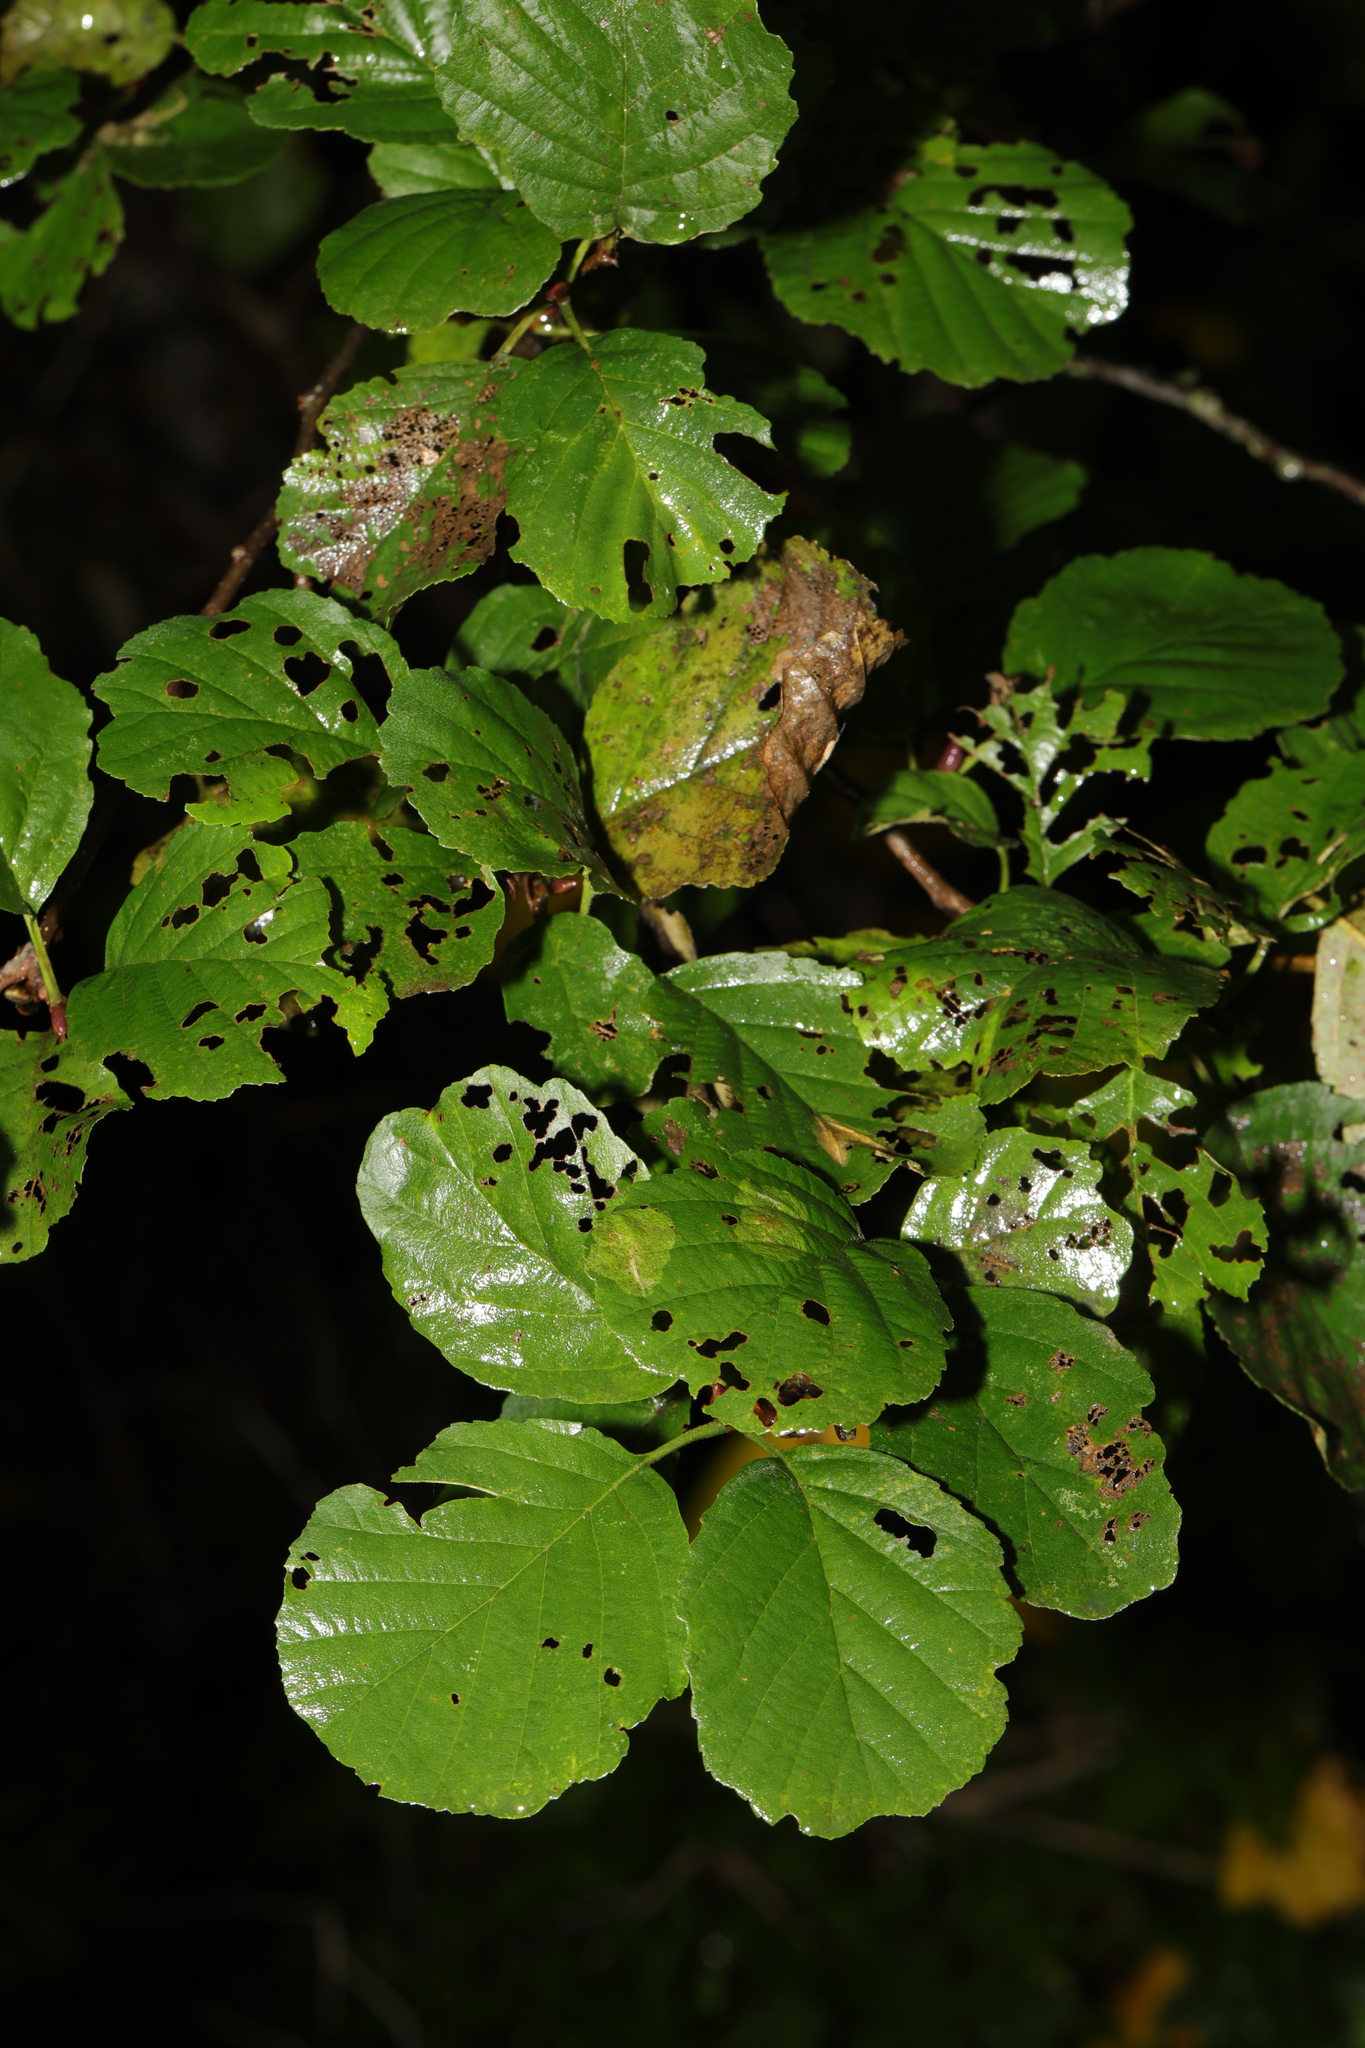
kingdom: Plantae
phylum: Tracheophyta
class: Magnoliopsida
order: Fagales
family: Betulaceae
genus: Alnus
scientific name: Alnus glutinosa
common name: Black alder
